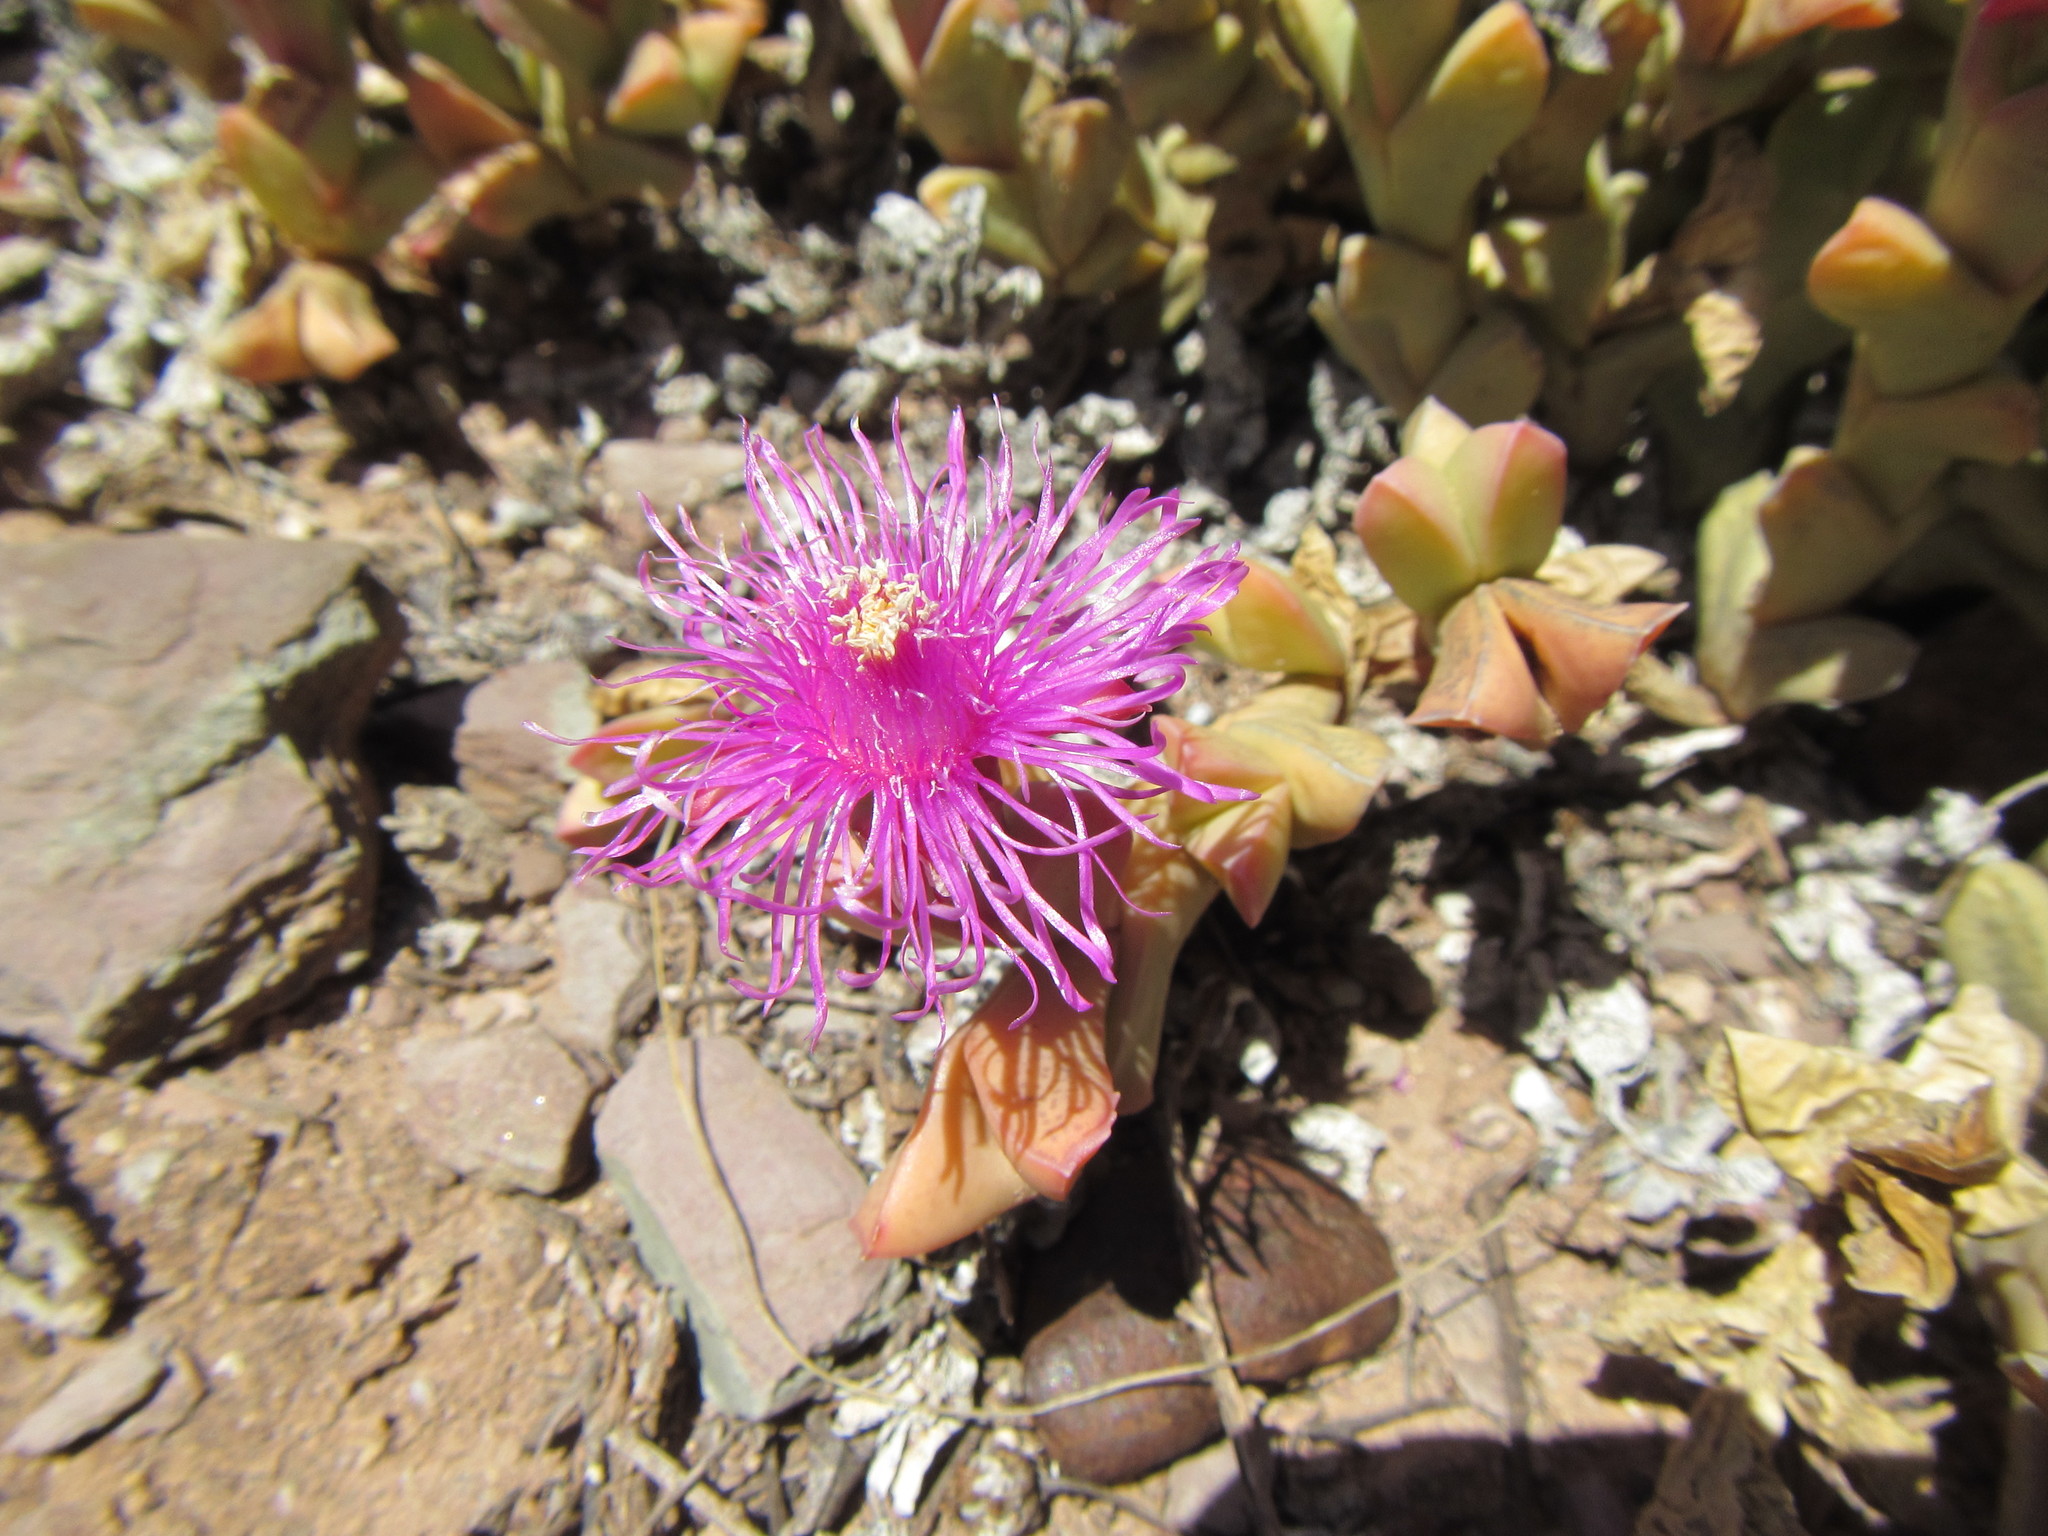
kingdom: Plantae
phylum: Tracheophyta
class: Magnoliopsida
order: Caryophyllales
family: Aizoaceae
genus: Ruschia
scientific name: Ruschia approximata
